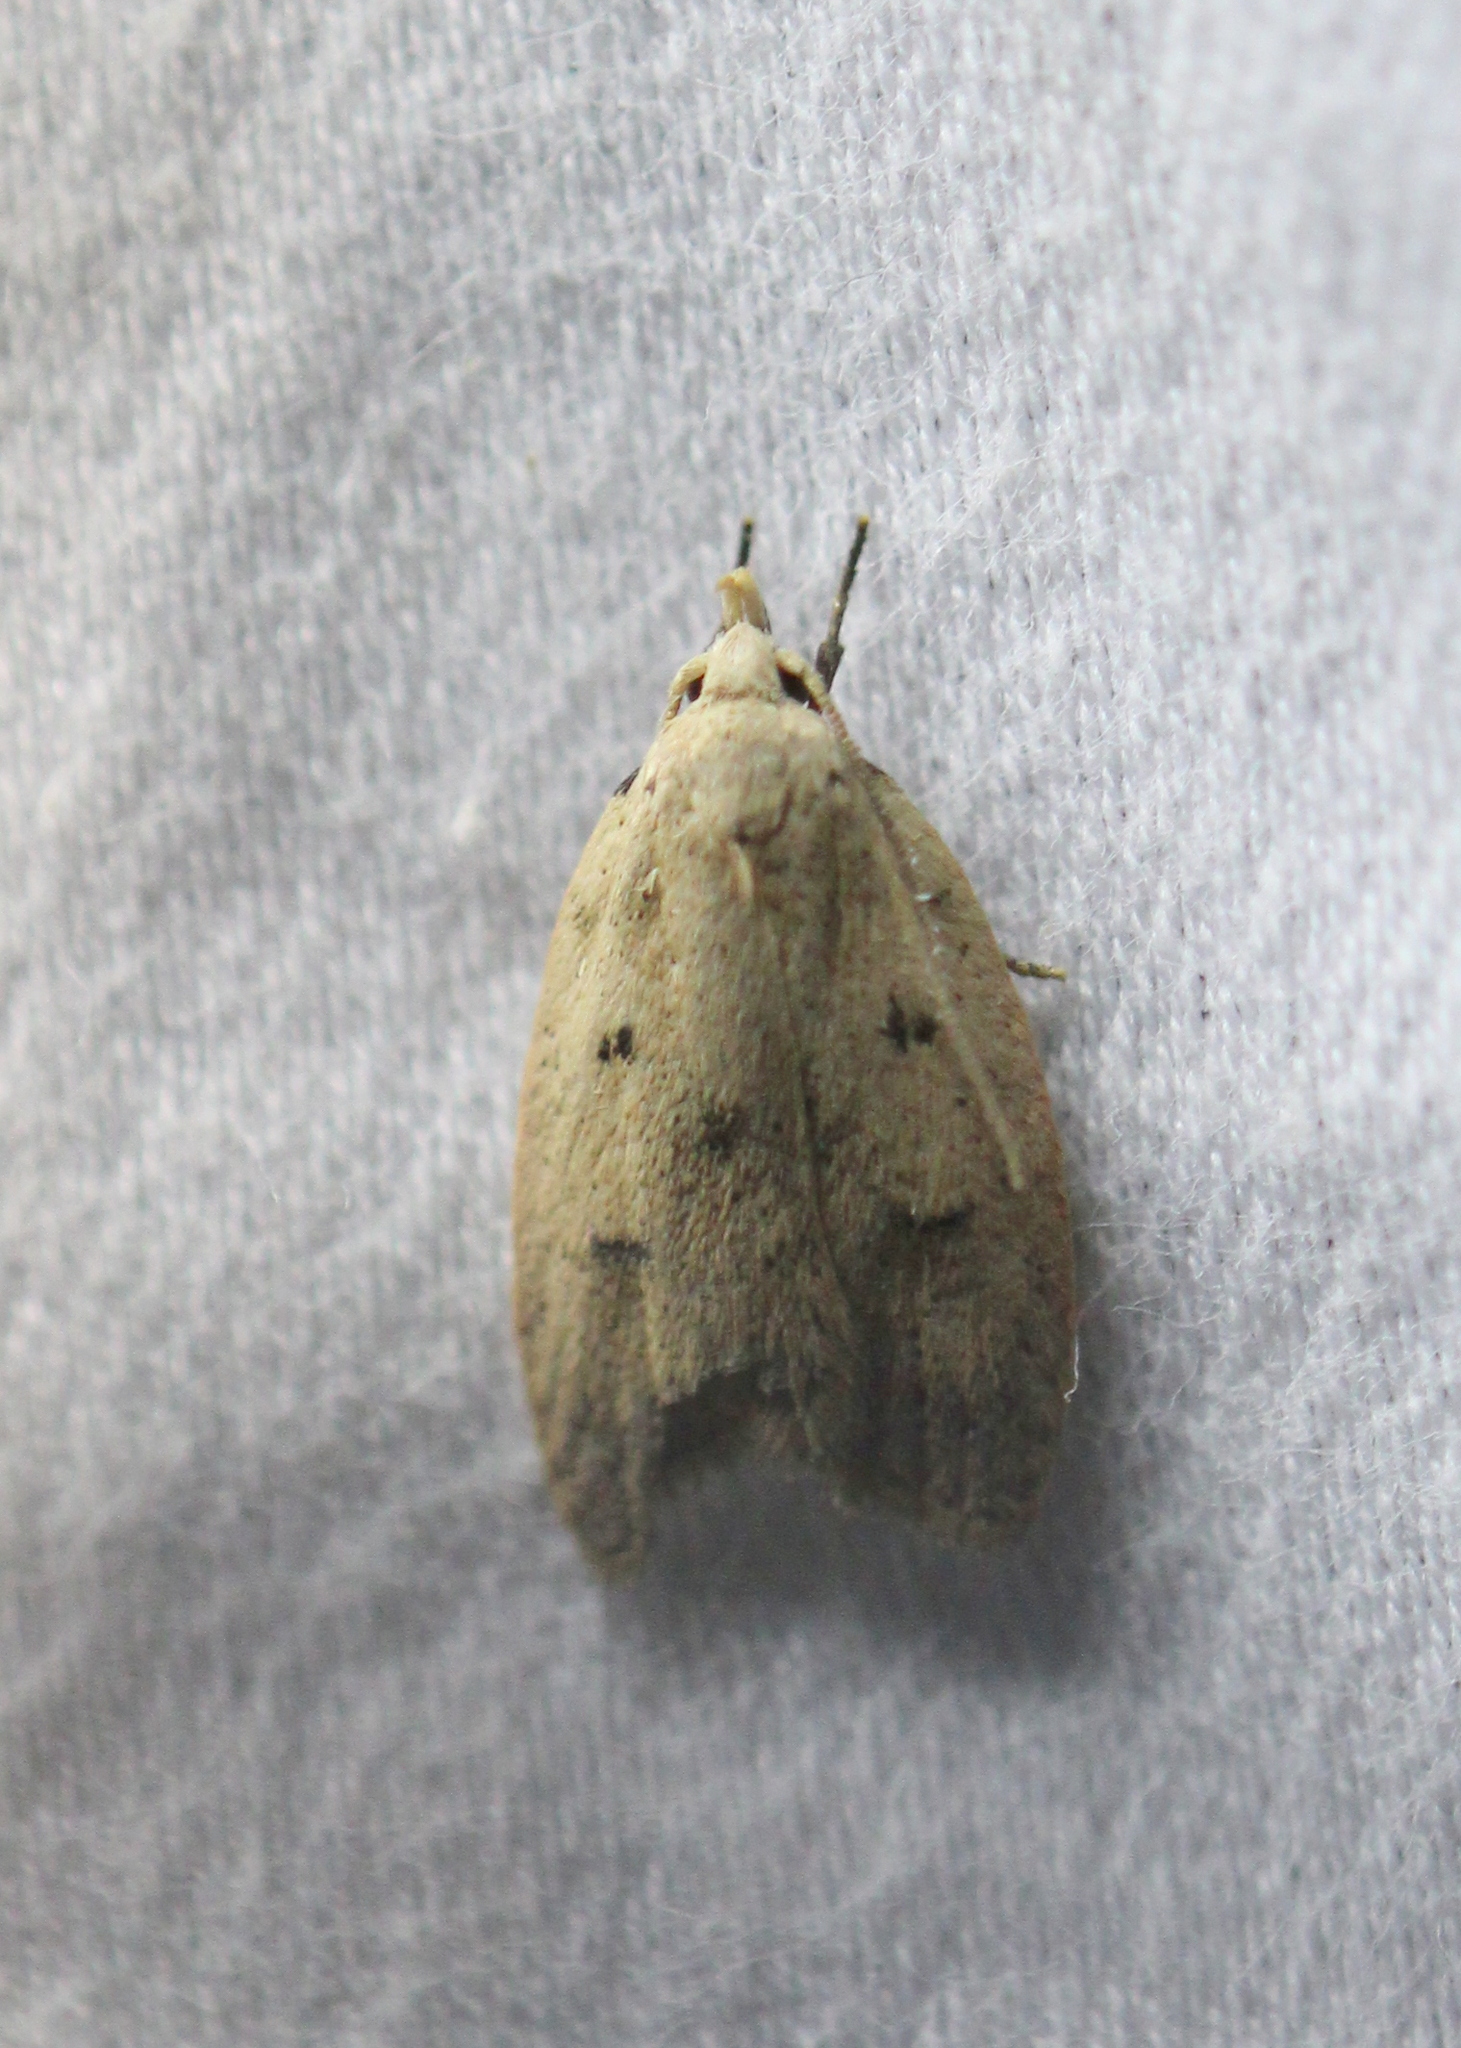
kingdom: Animalia
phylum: Arthropoda
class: Insecta
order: Lepidoptera
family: Peleopodidae
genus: Machimia
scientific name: Machimia tentoriferella
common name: Gold-striped leaftier moth
